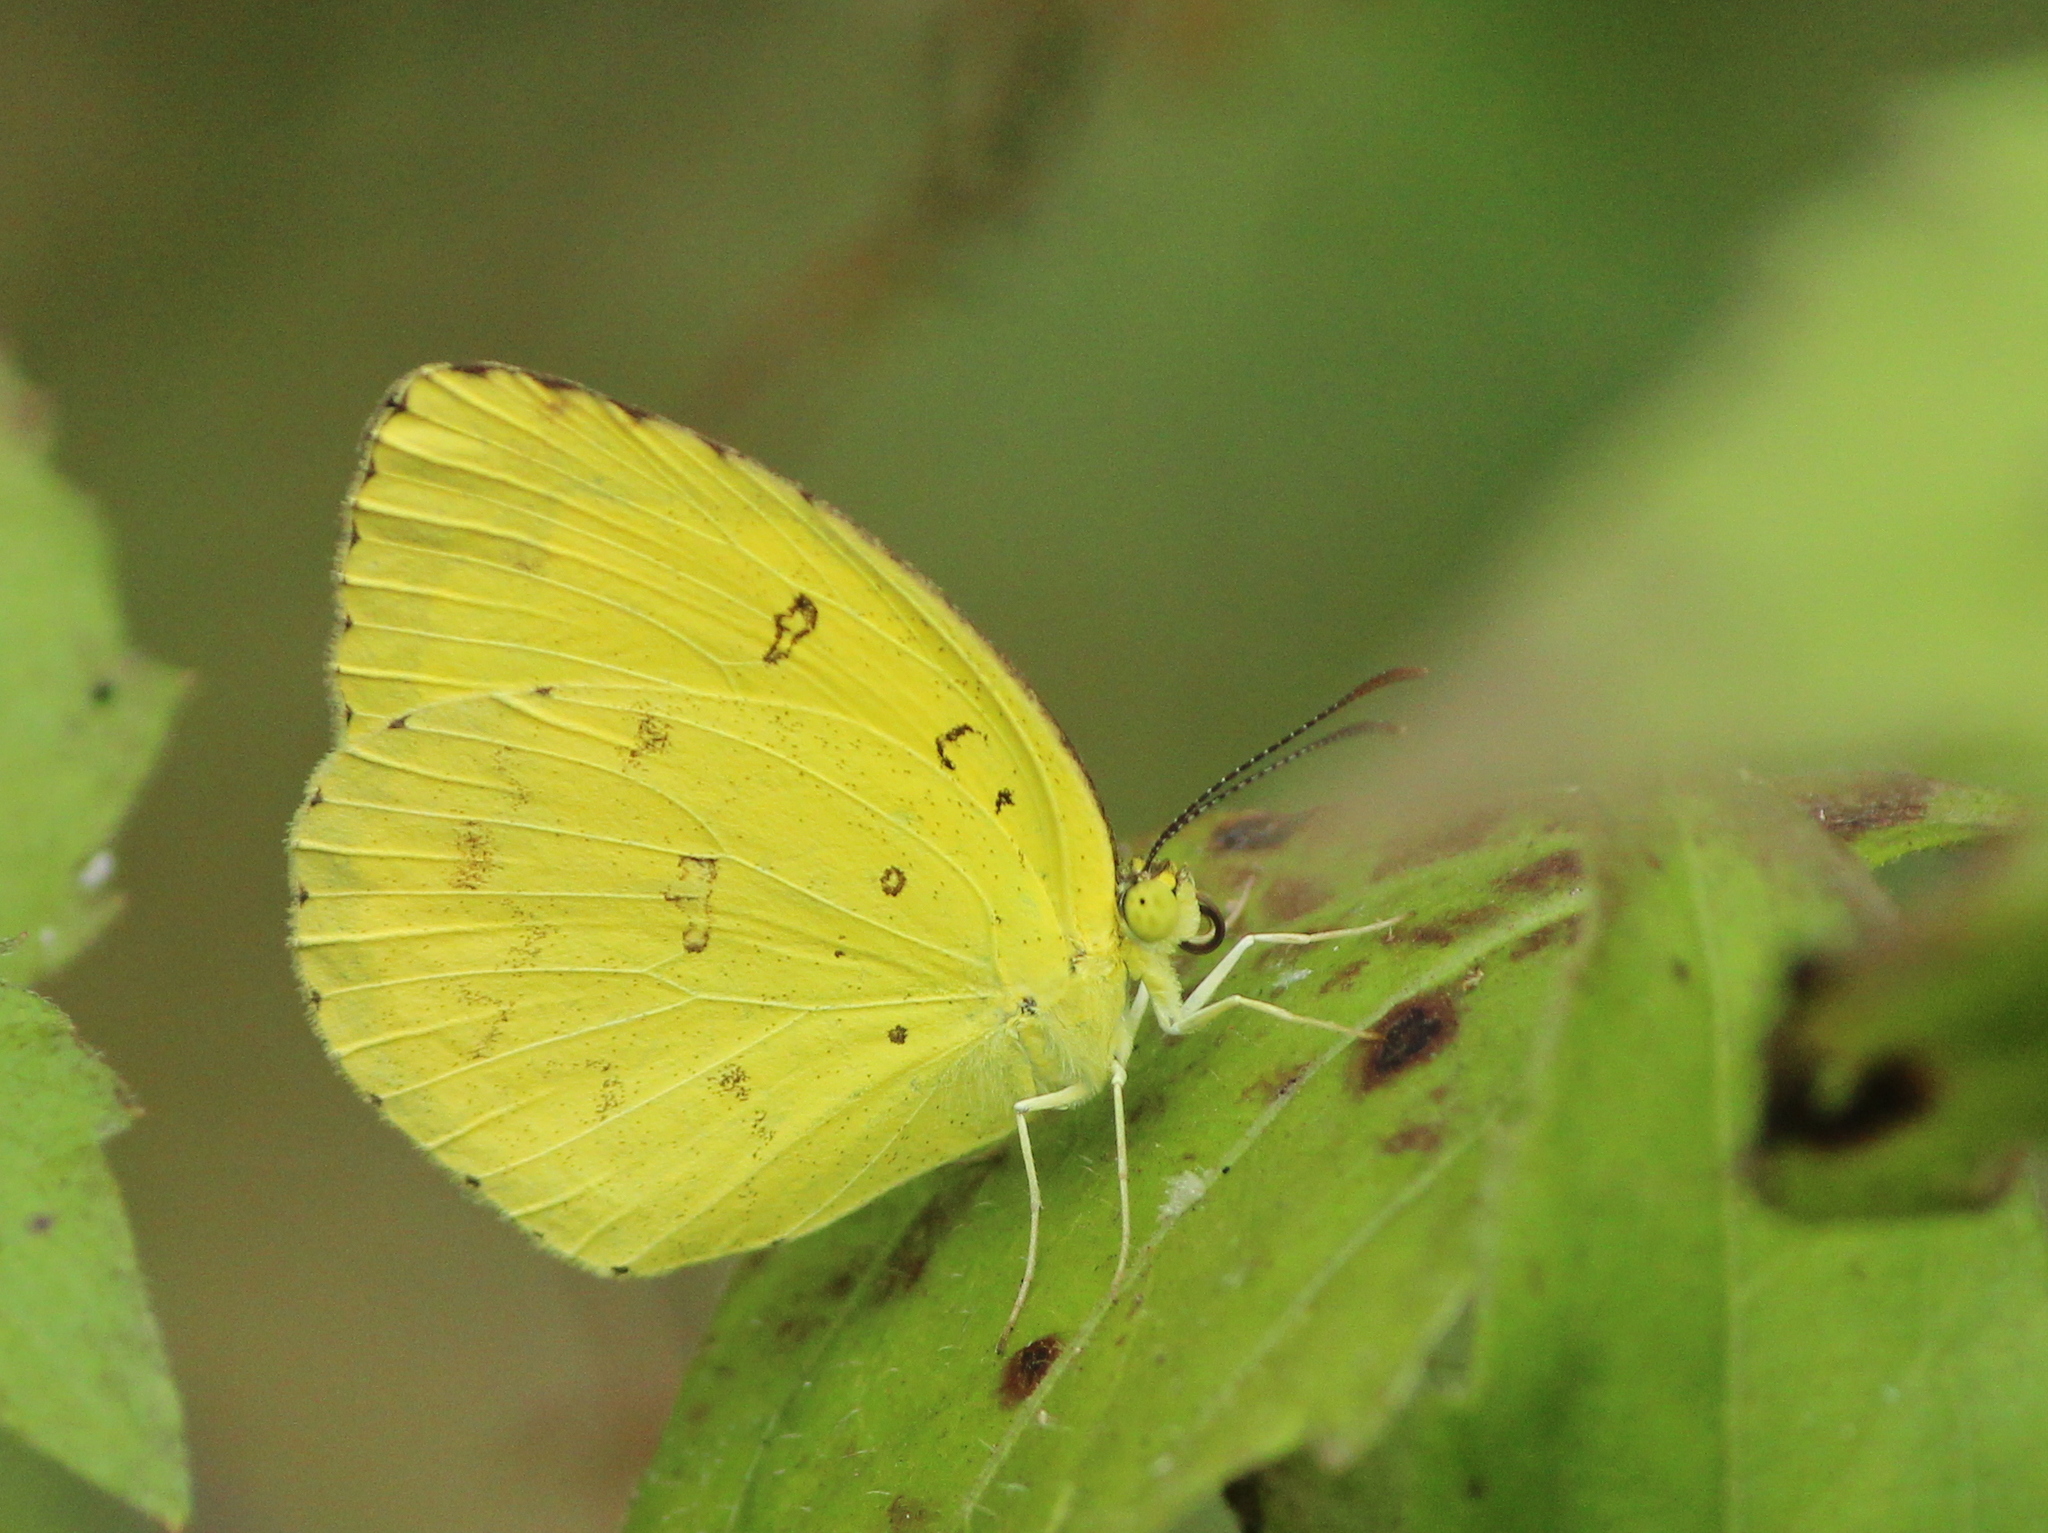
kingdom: Animalia
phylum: Arthropoda
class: Insecta
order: Lepidoptera
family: Pieridae
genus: Eurema
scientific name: Eurema hecabe
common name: Pale grass yellow
